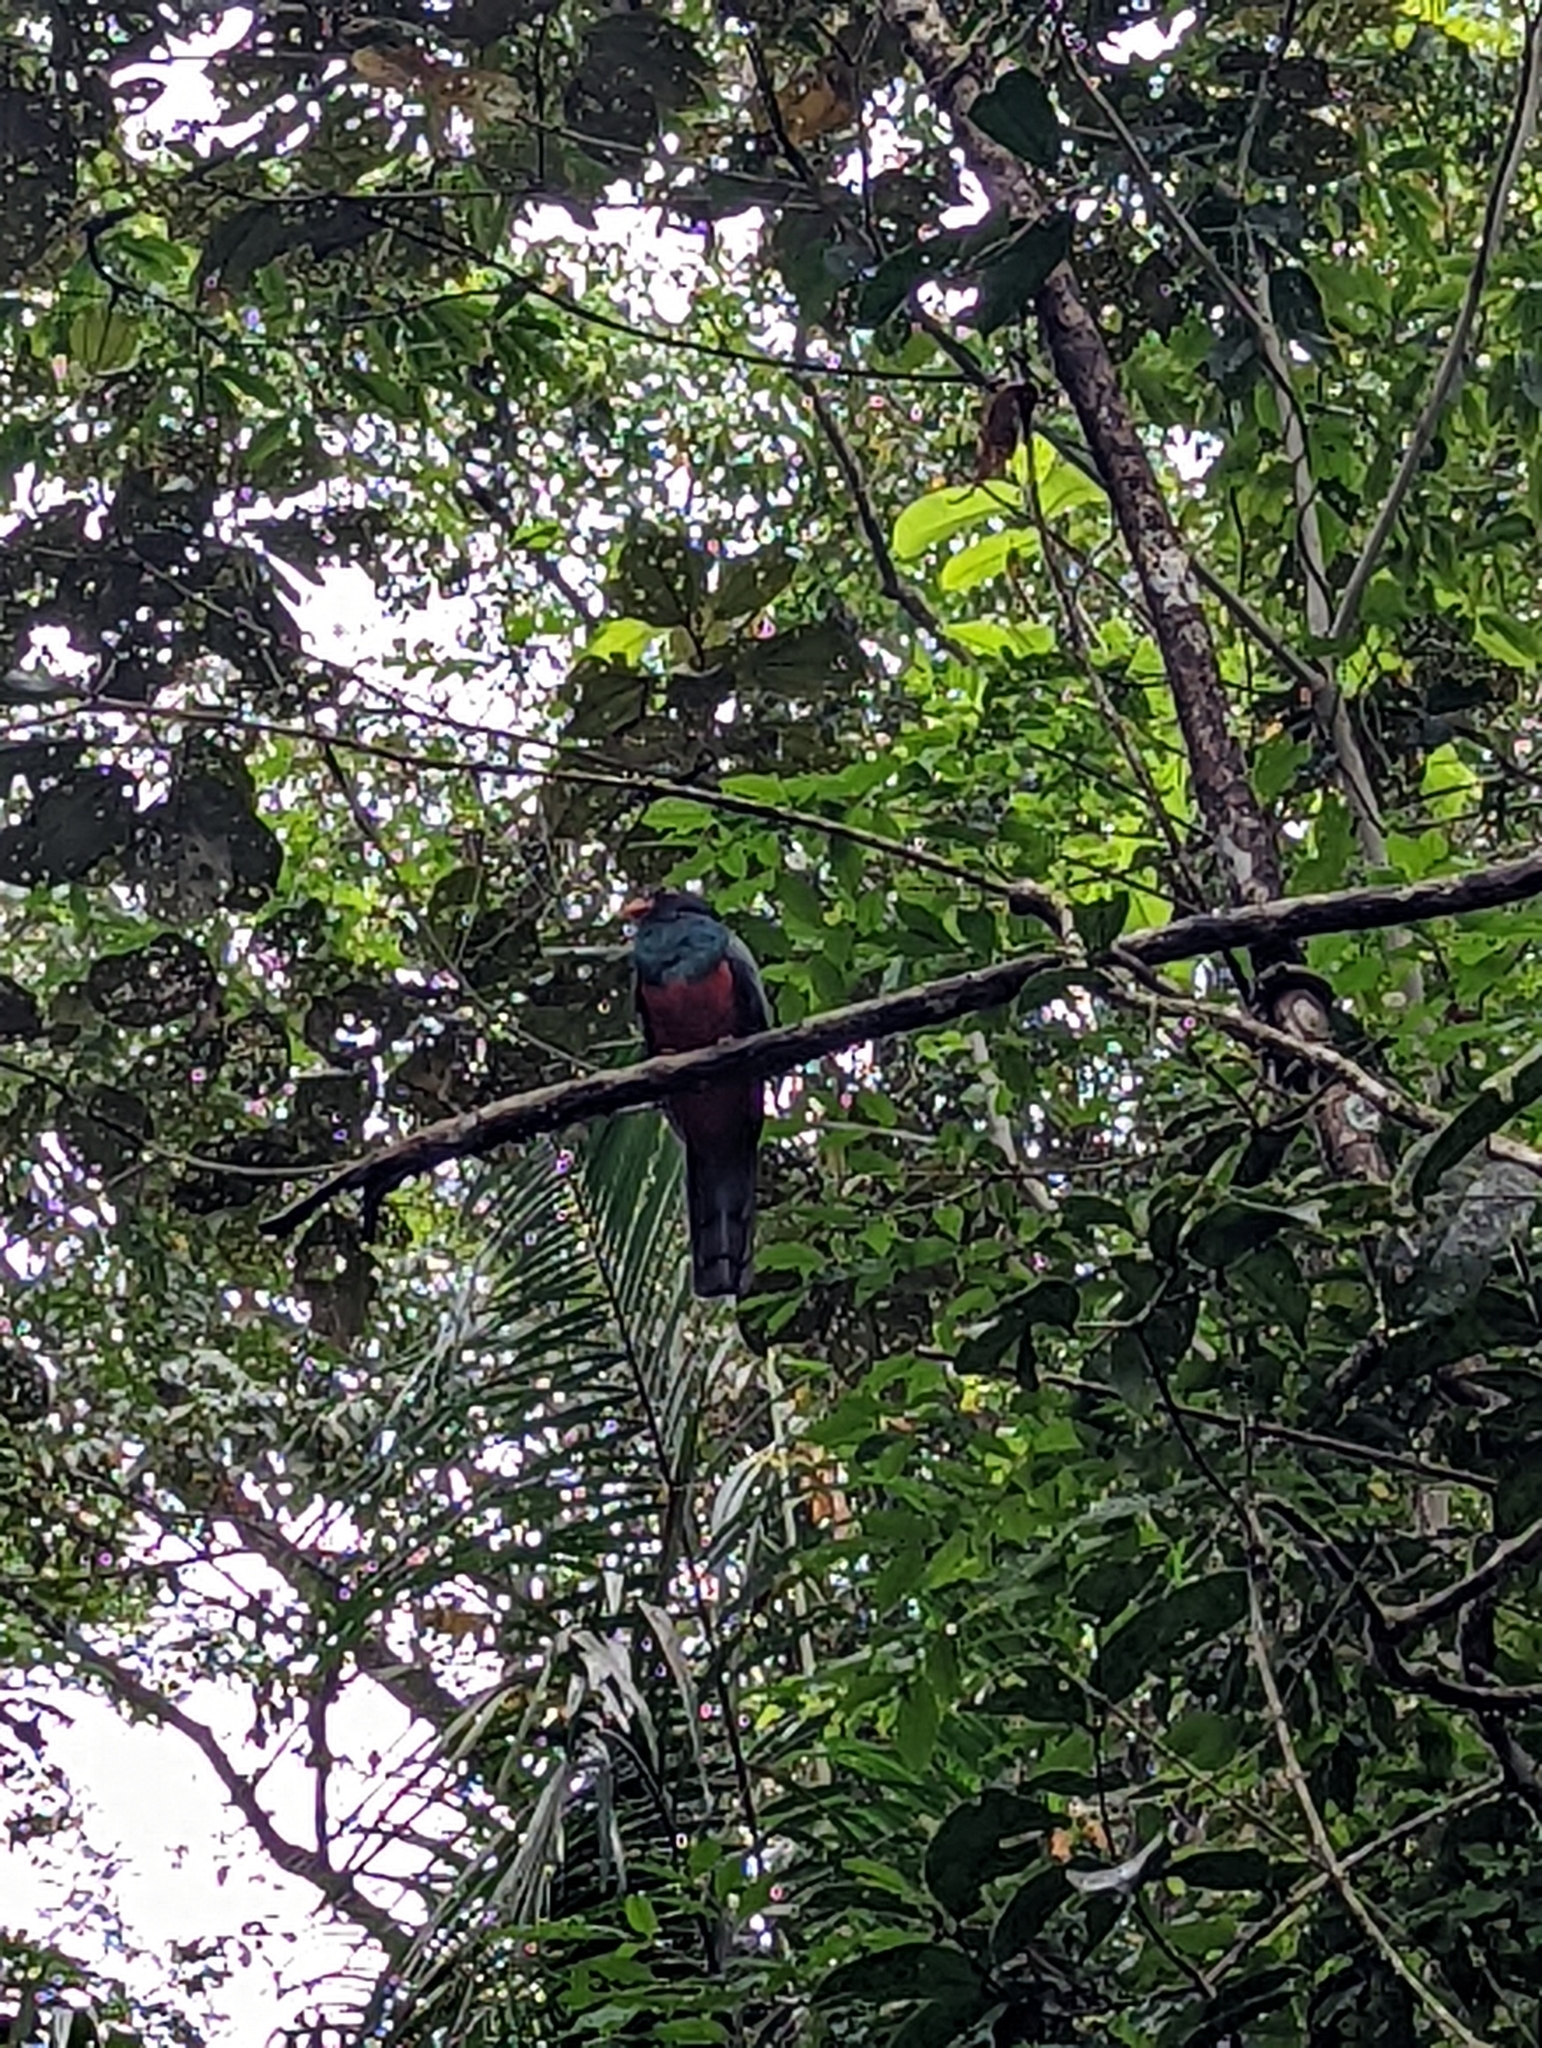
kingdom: Animalia
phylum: Chordata
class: Aves
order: Trogoniformes
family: Trogonidae
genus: Trogon
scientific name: Trogon massena
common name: Slaty-tailed trogon
